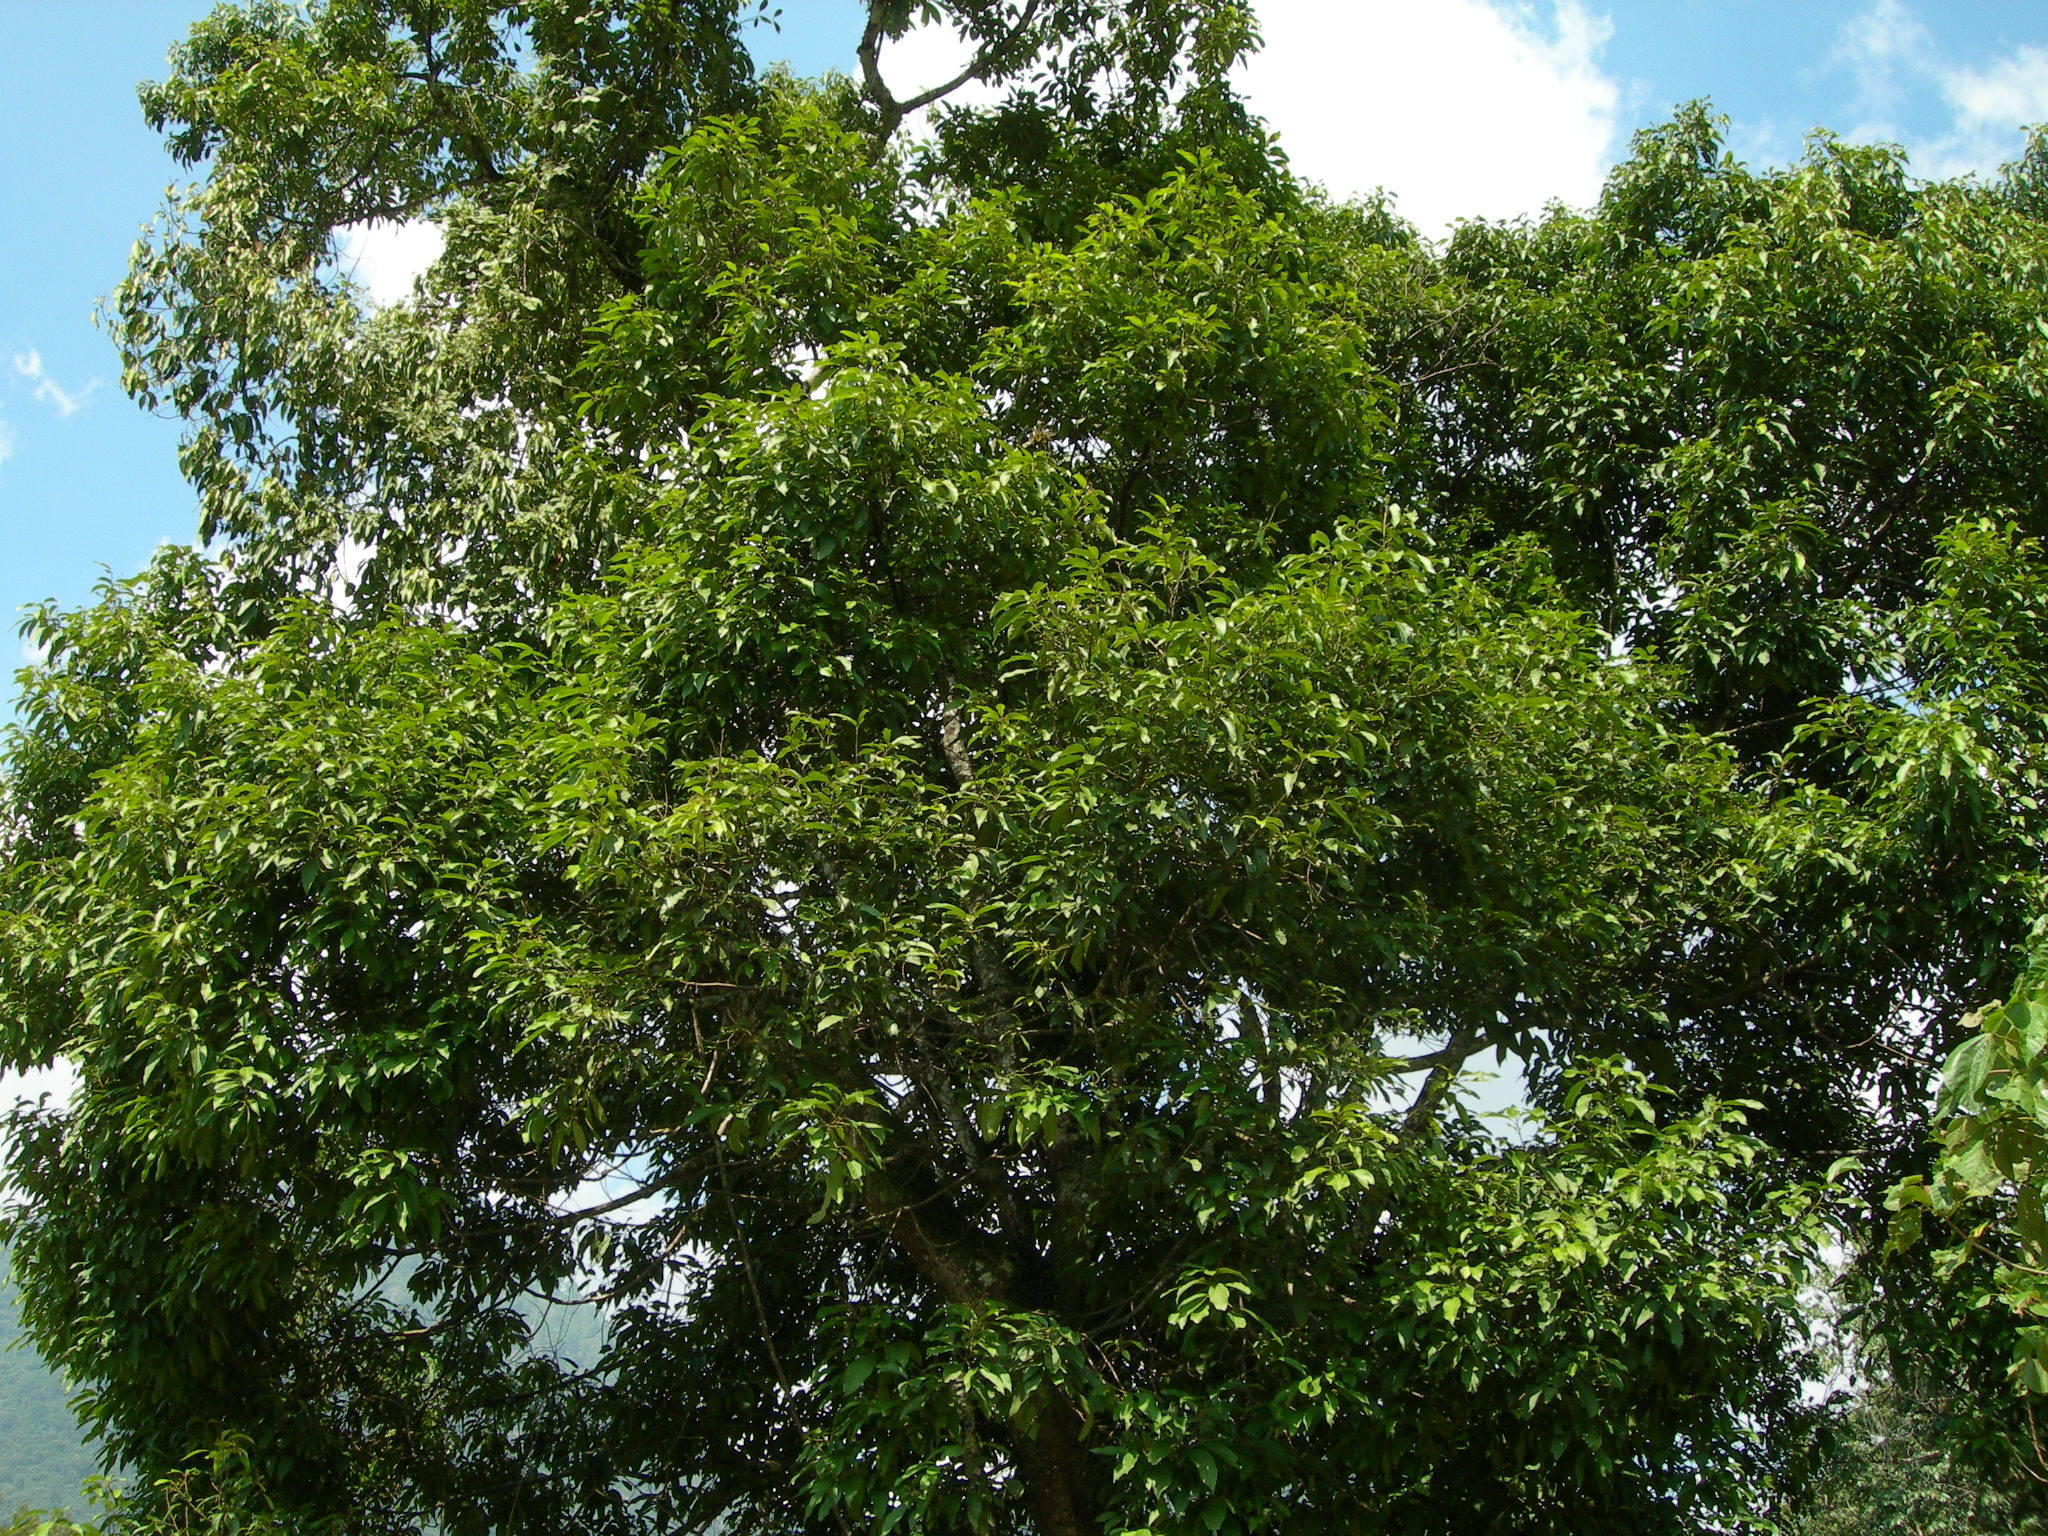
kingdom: Plantae
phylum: Tracheophyta
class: Magnoliopsida
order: Rosales
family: Moraceae
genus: Brosimum
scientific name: Brosimum alicastrum
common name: Breadnut
